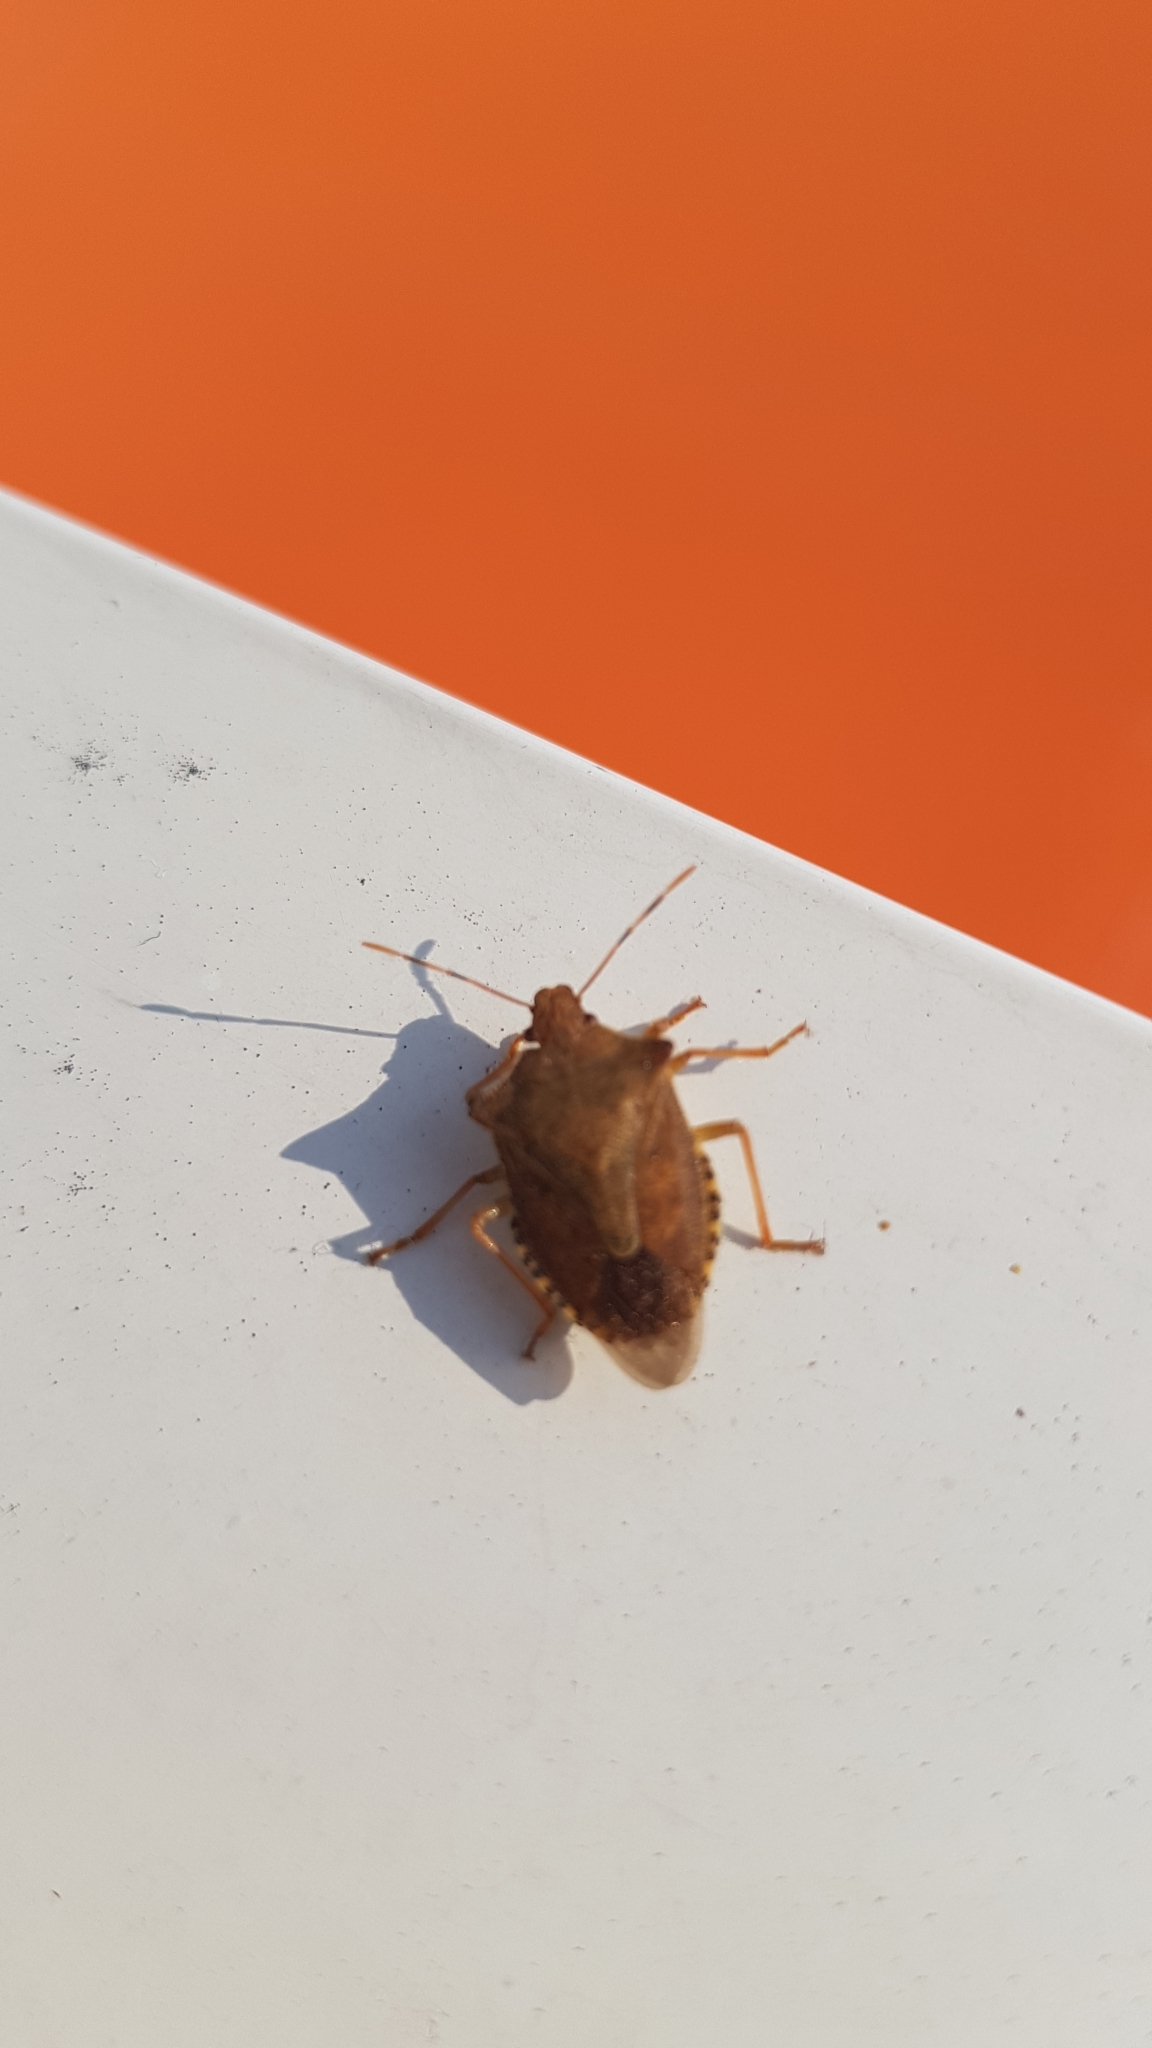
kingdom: Animalia
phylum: Arthropoda
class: Insecta
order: Hemiptera
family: Pentatomidae
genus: Arma
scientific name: Arma custos
